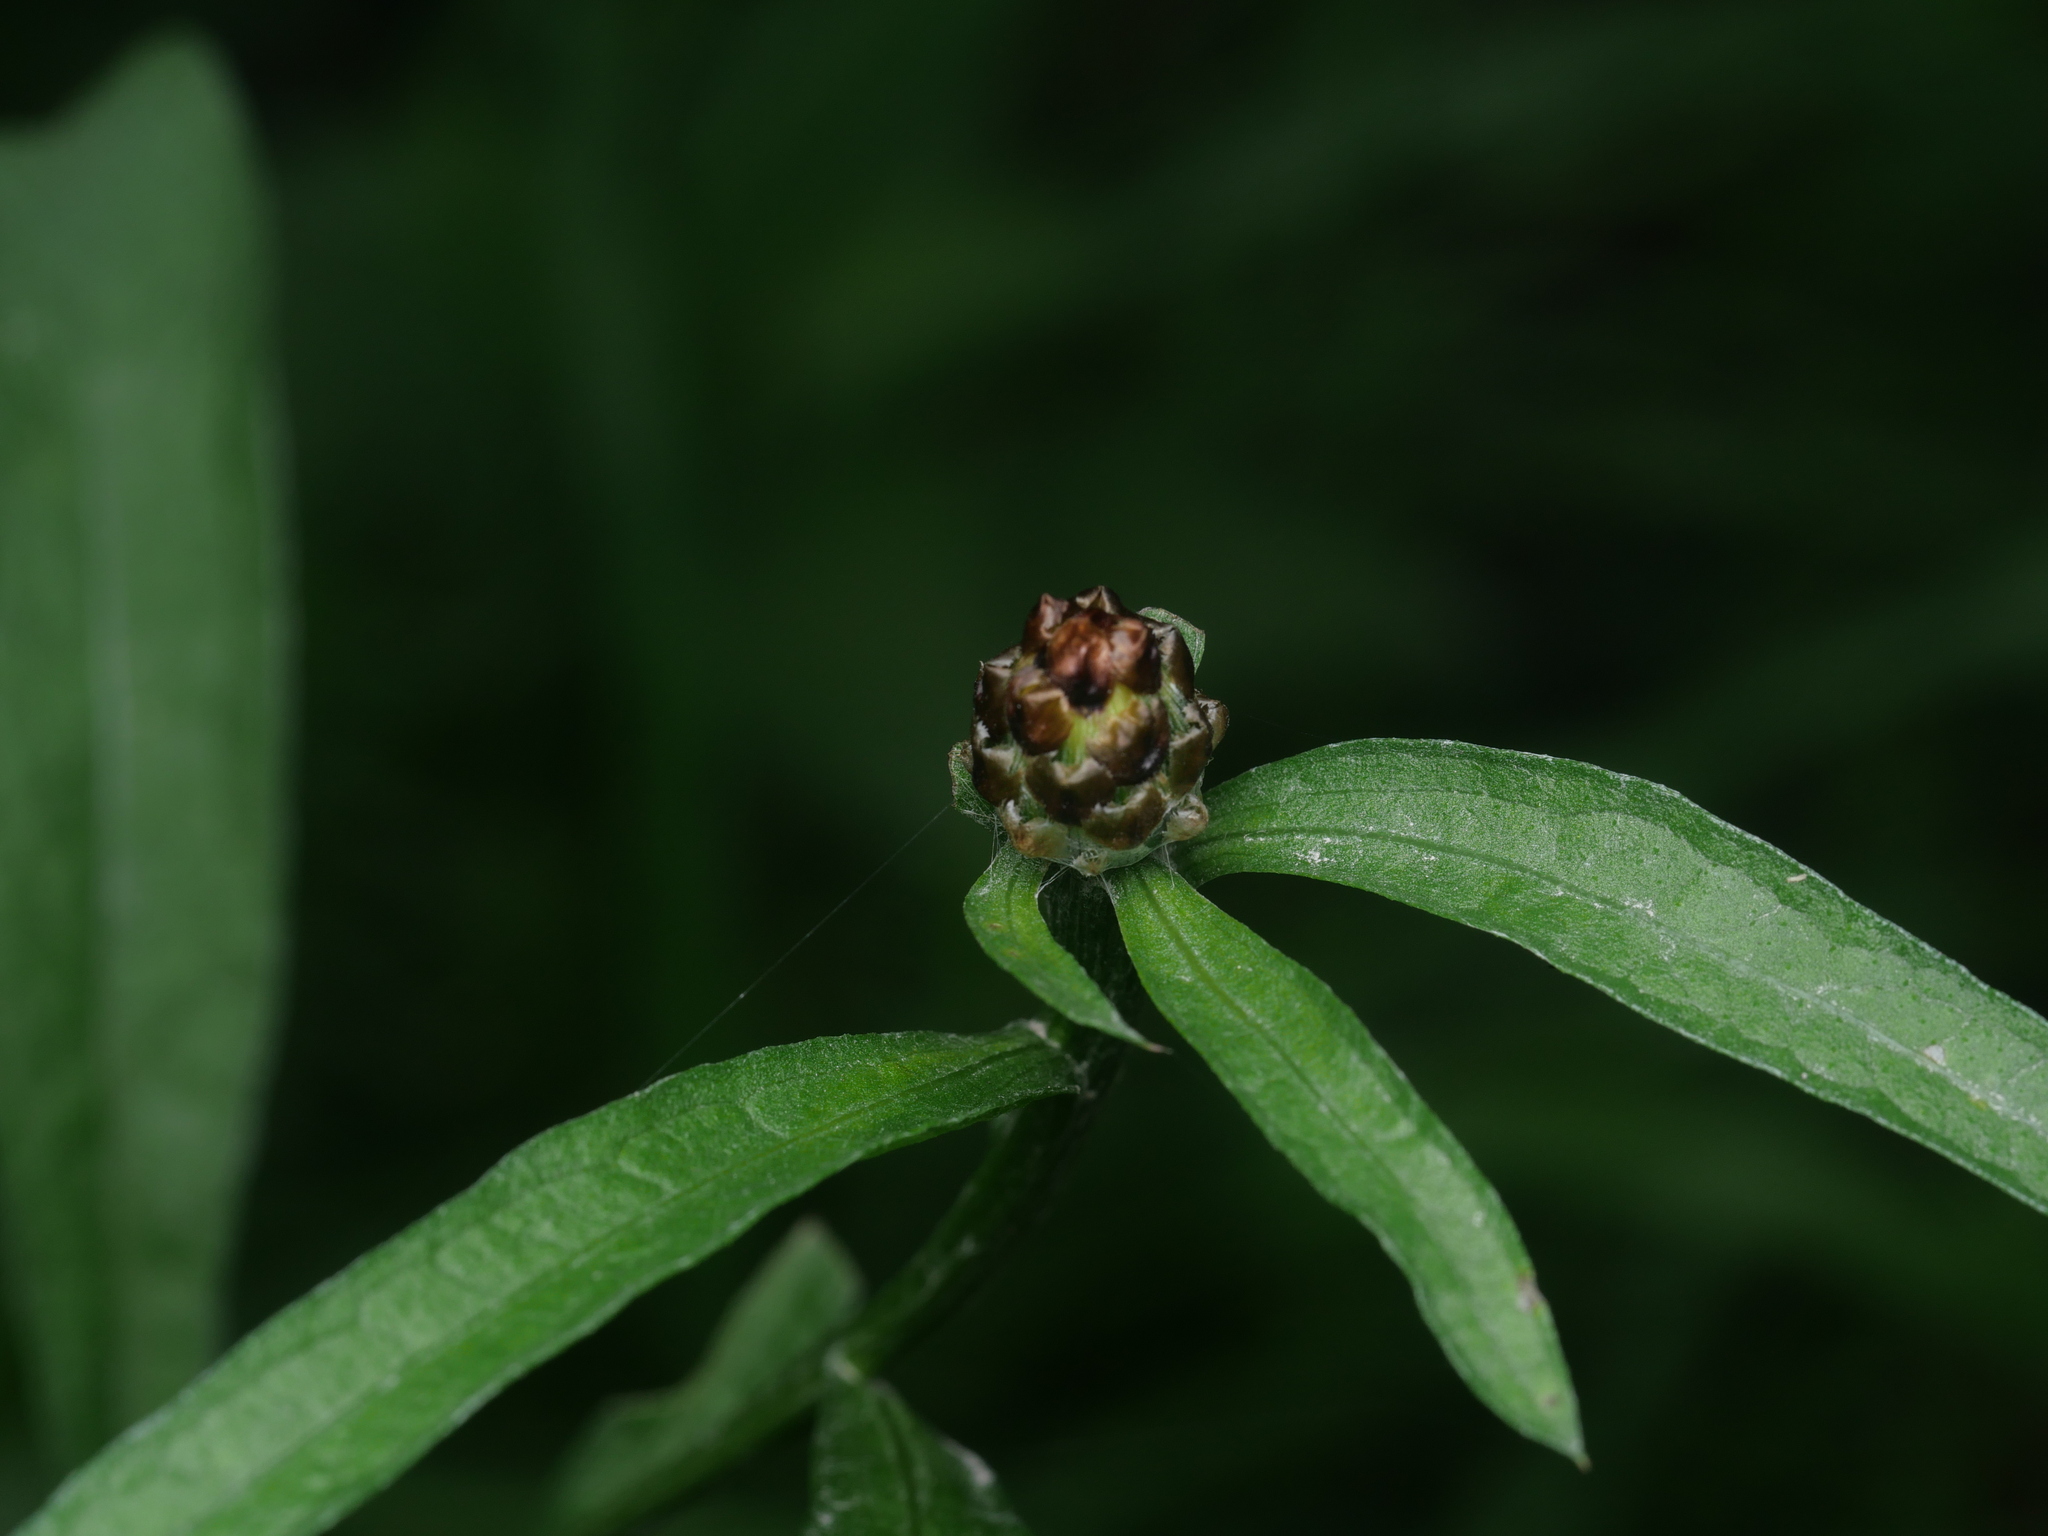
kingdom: Plantae
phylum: Tracheophyta
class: Magnoliopsida
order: Asterales
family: Asteraceae
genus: Centaurea
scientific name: Centaurea jacea
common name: Brown knapweed
